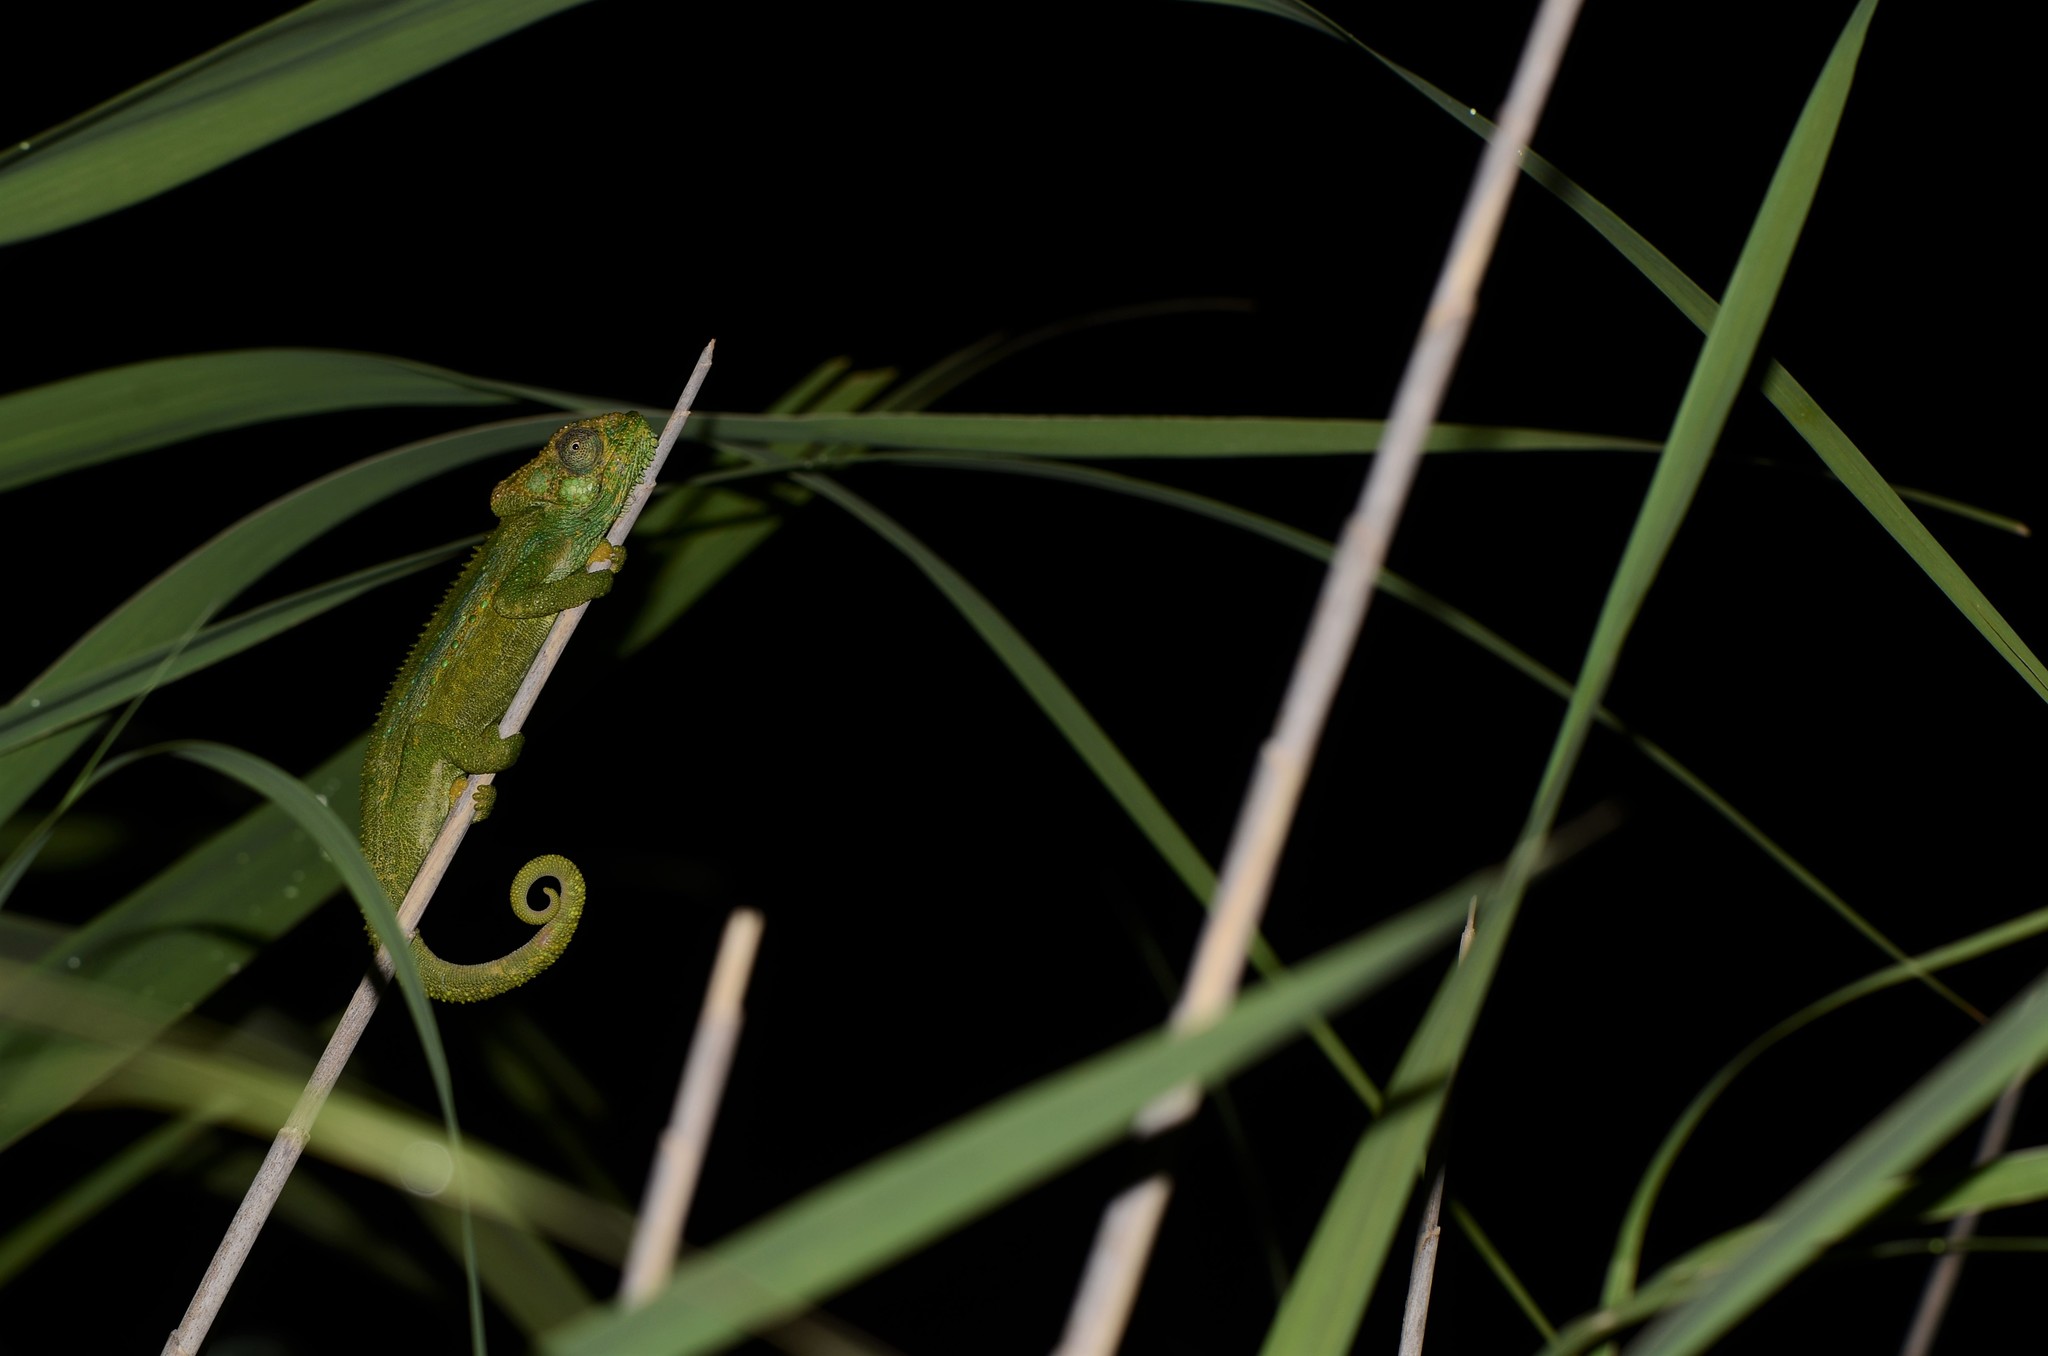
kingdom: Animalia
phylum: Chordata
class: Squamata
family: Chamaeleonidae
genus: Bradypodion
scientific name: Bradypodion pumilum
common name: Cape dwarf chameleon
